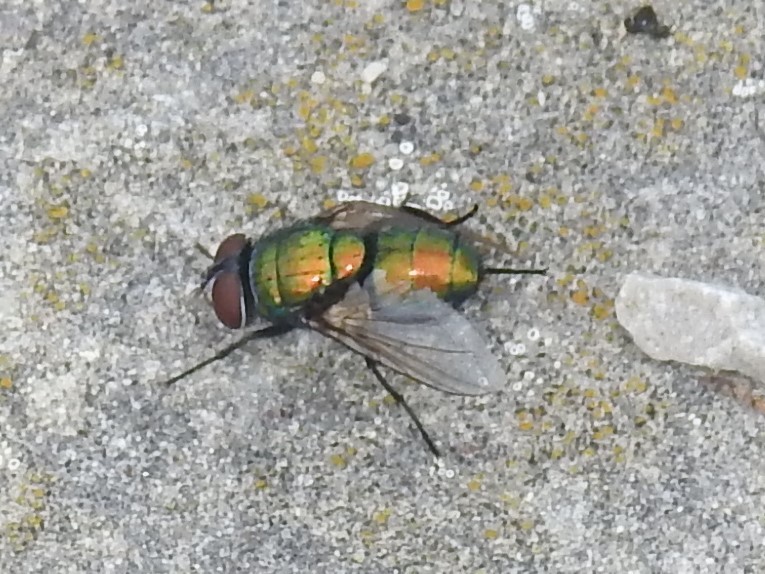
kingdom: Animalia
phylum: Arthropoda
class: Insecta
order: Diptera
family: Calliphoridae
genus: Lucilia
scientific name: Lucilia sericata
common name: Blow fly
